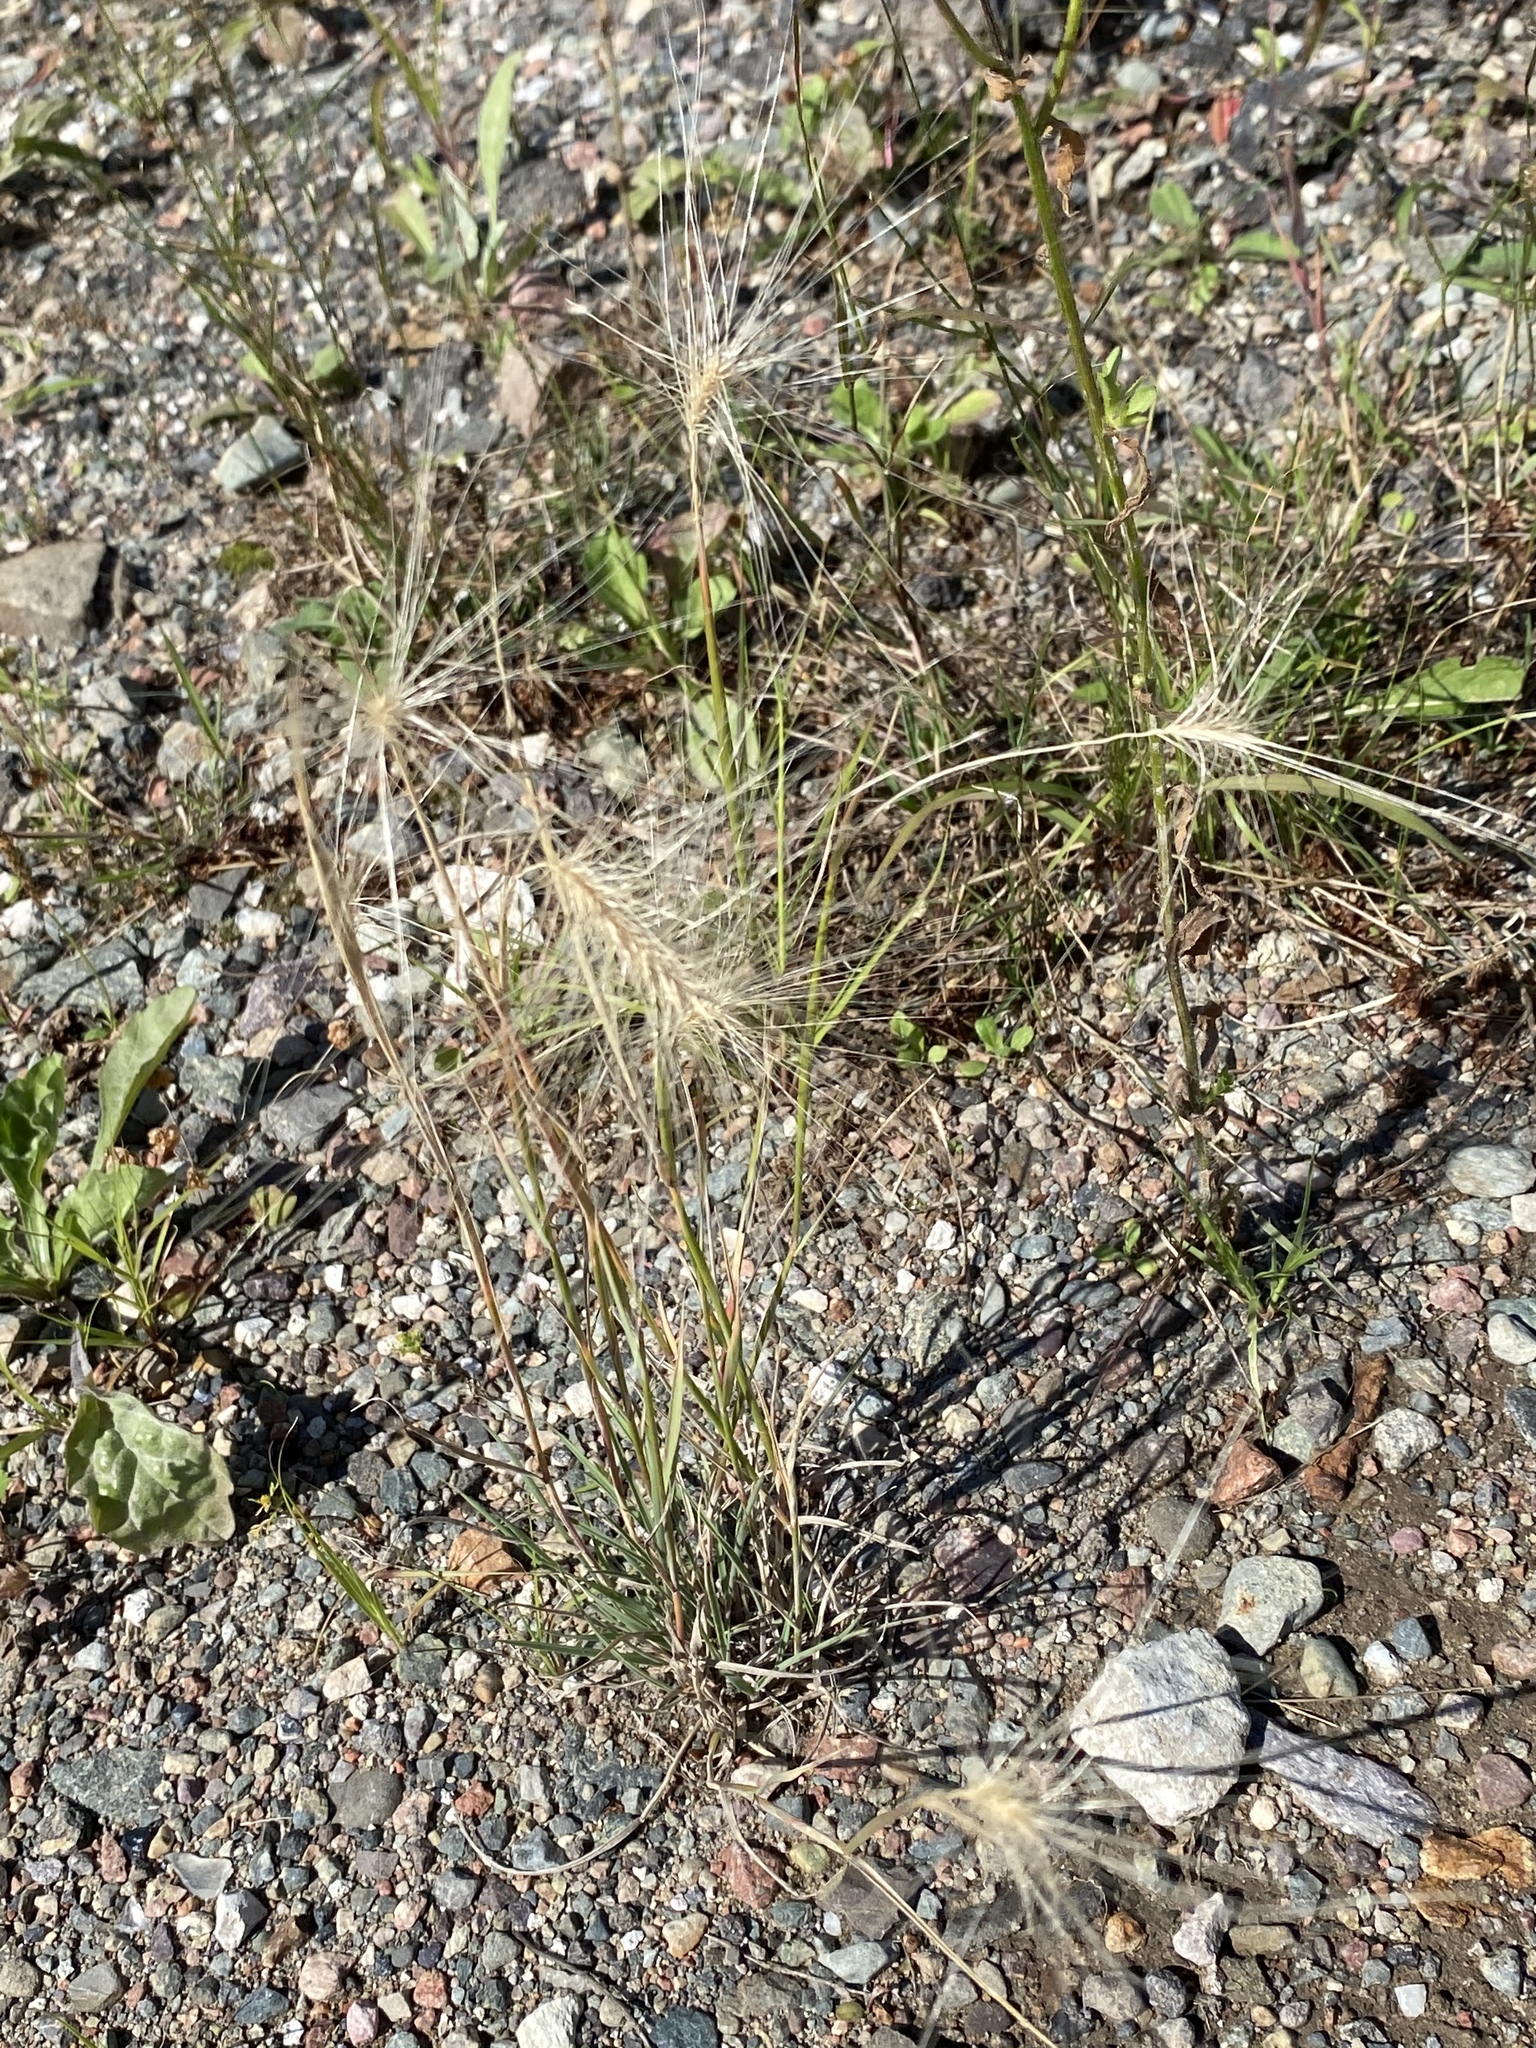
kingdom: Plantae
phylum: Tracheophyta
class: Liliopsida
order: Poales
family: Poaceae
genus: Hordeum
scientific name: Hordeum jubatum
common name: Foxtail barley
